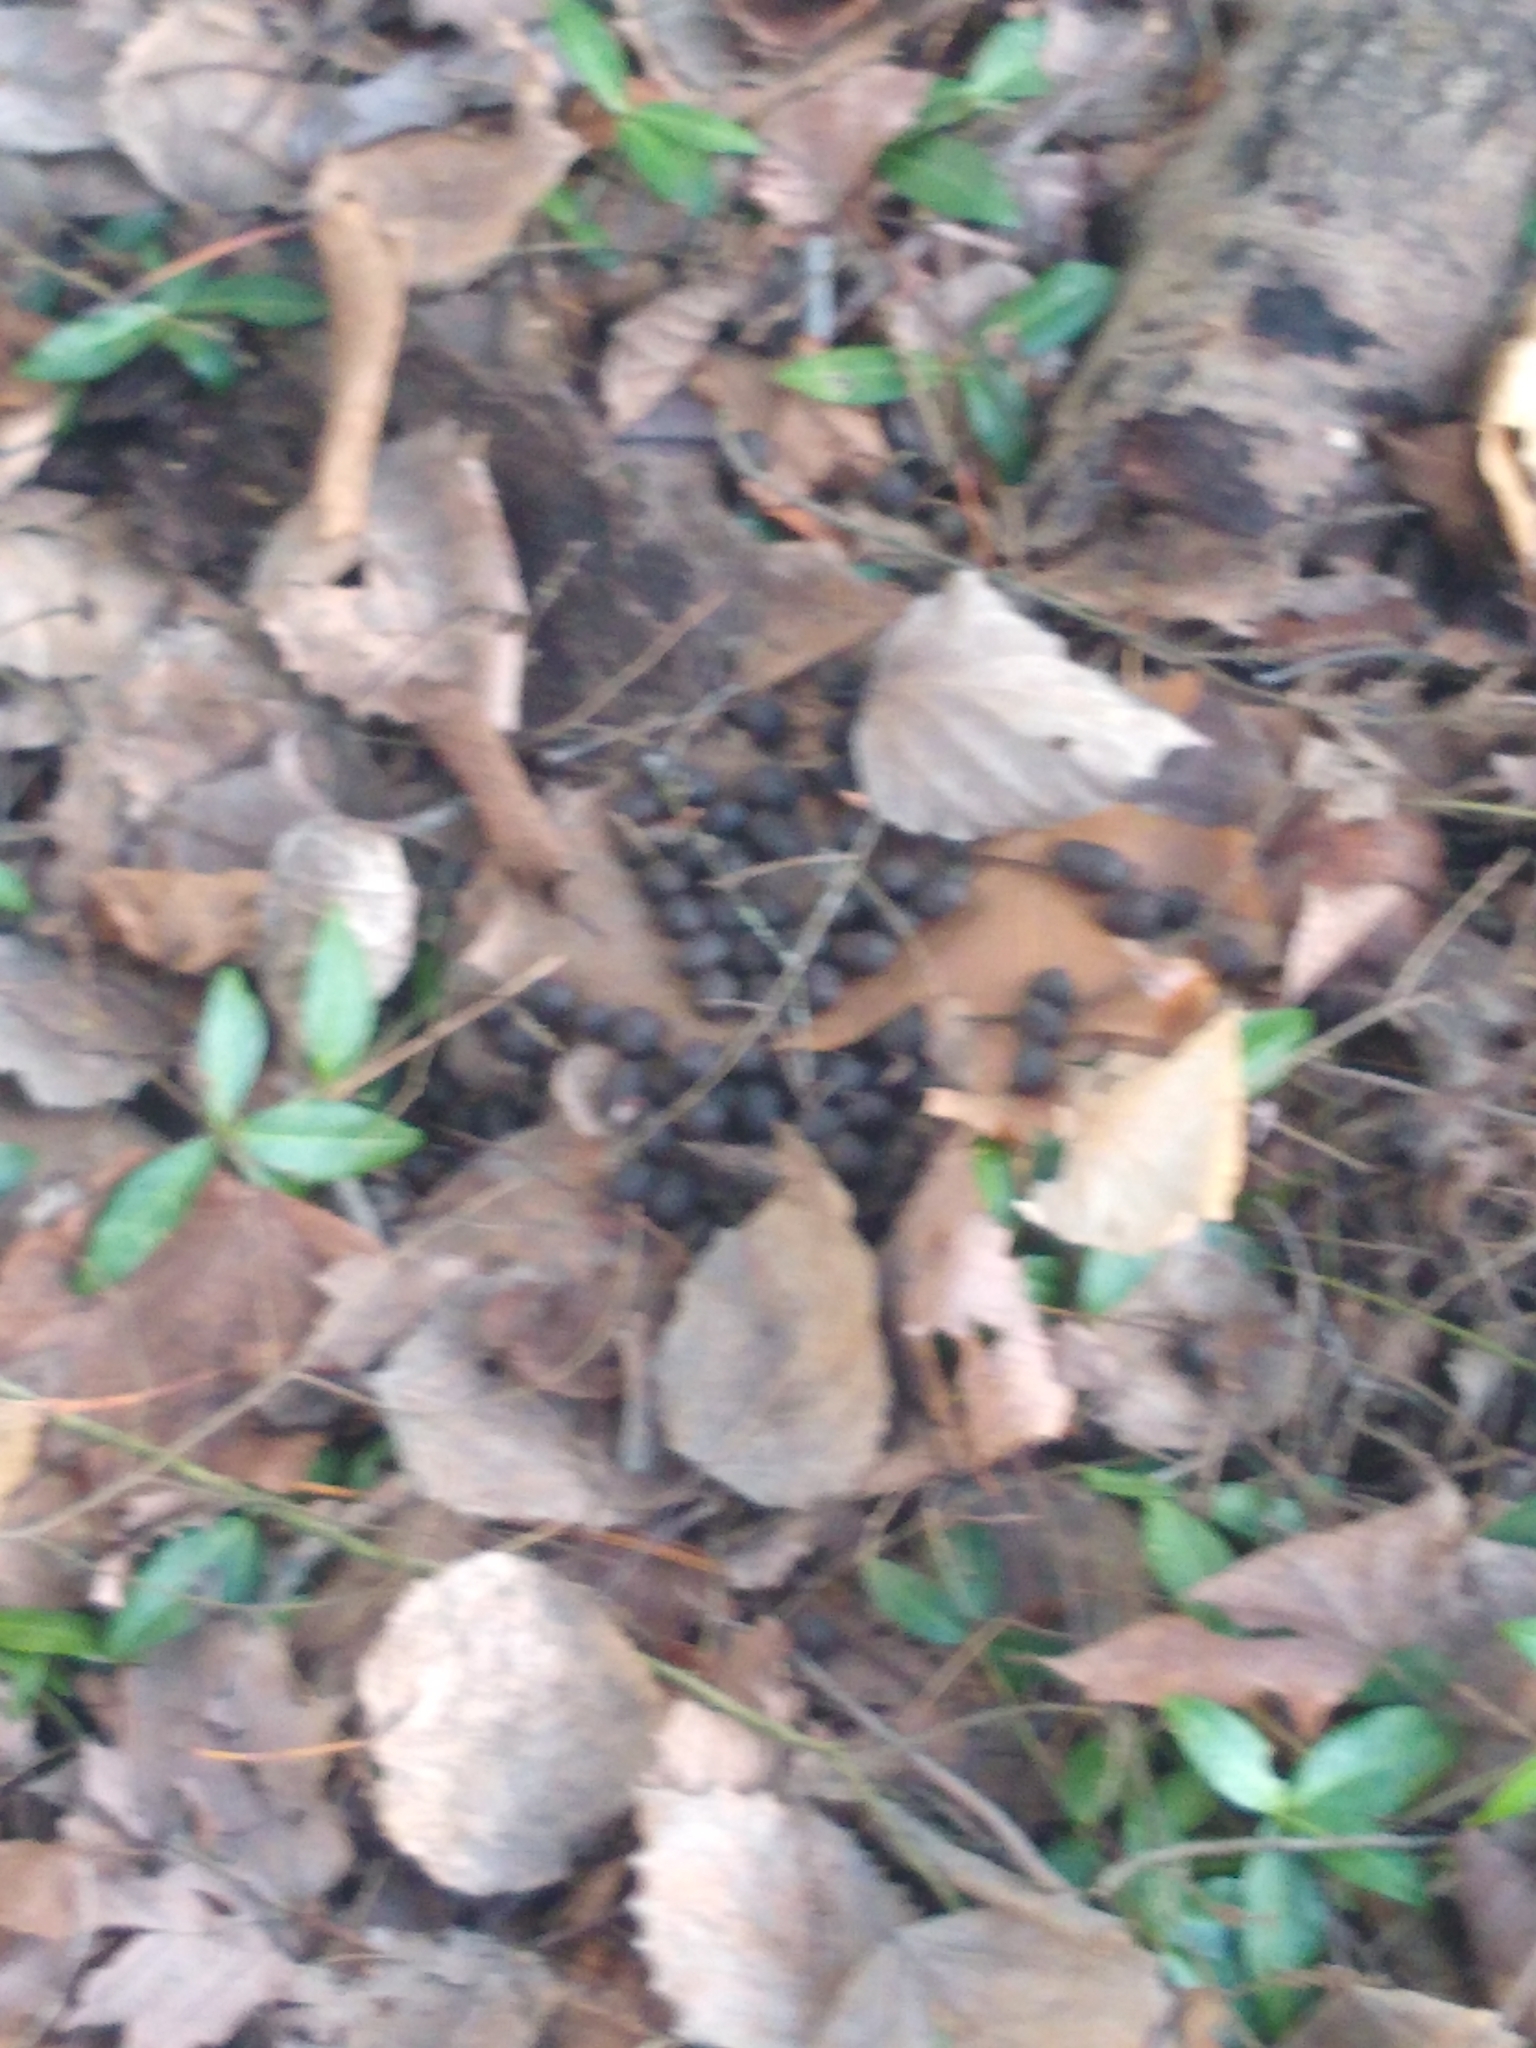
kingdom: Animalia
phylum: Chordata
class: Mammalia
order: Artiodactyla
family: Cervidae
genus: Odocoileus
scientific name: Odocoileus virginianus
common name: White-tailed deer
